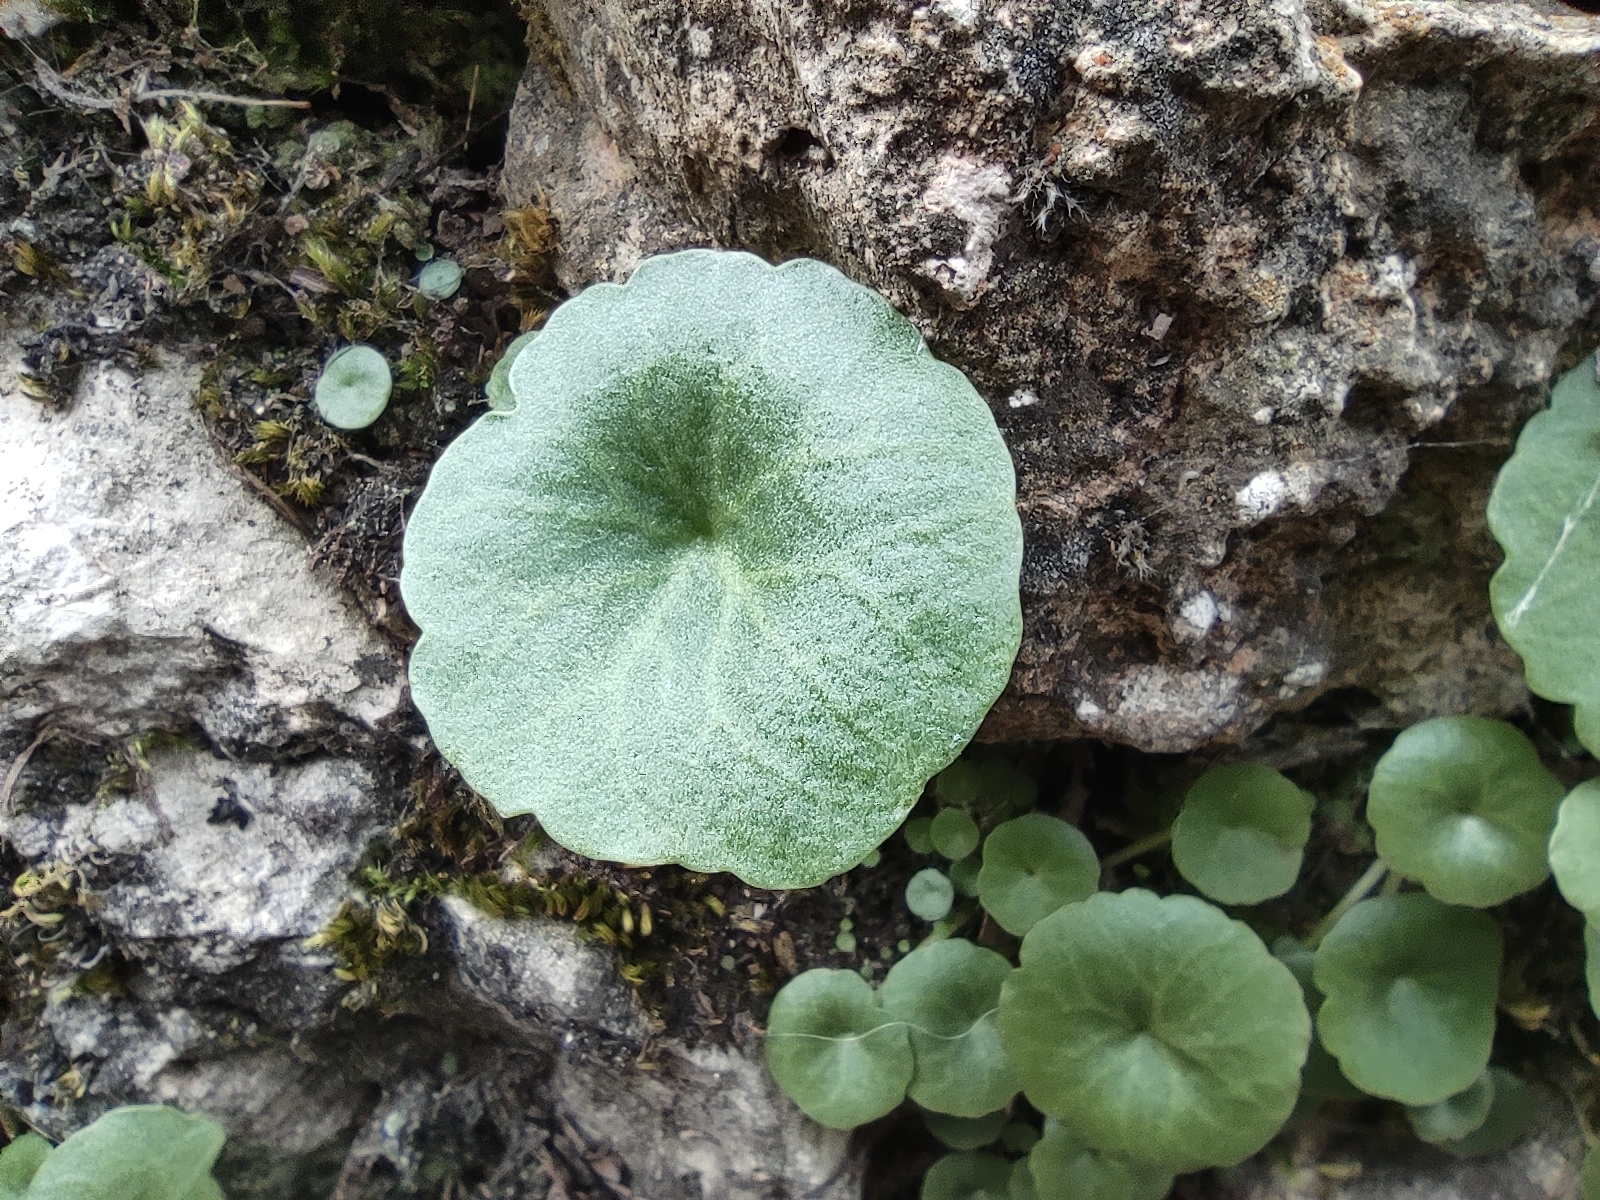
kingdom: Plantae
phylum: Tracheophyta
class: Magnoliopsida
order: Saxifragales
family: Crassulaceae
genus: Umbilicus
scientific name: Umbilicus rupestris
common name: Navelwort
